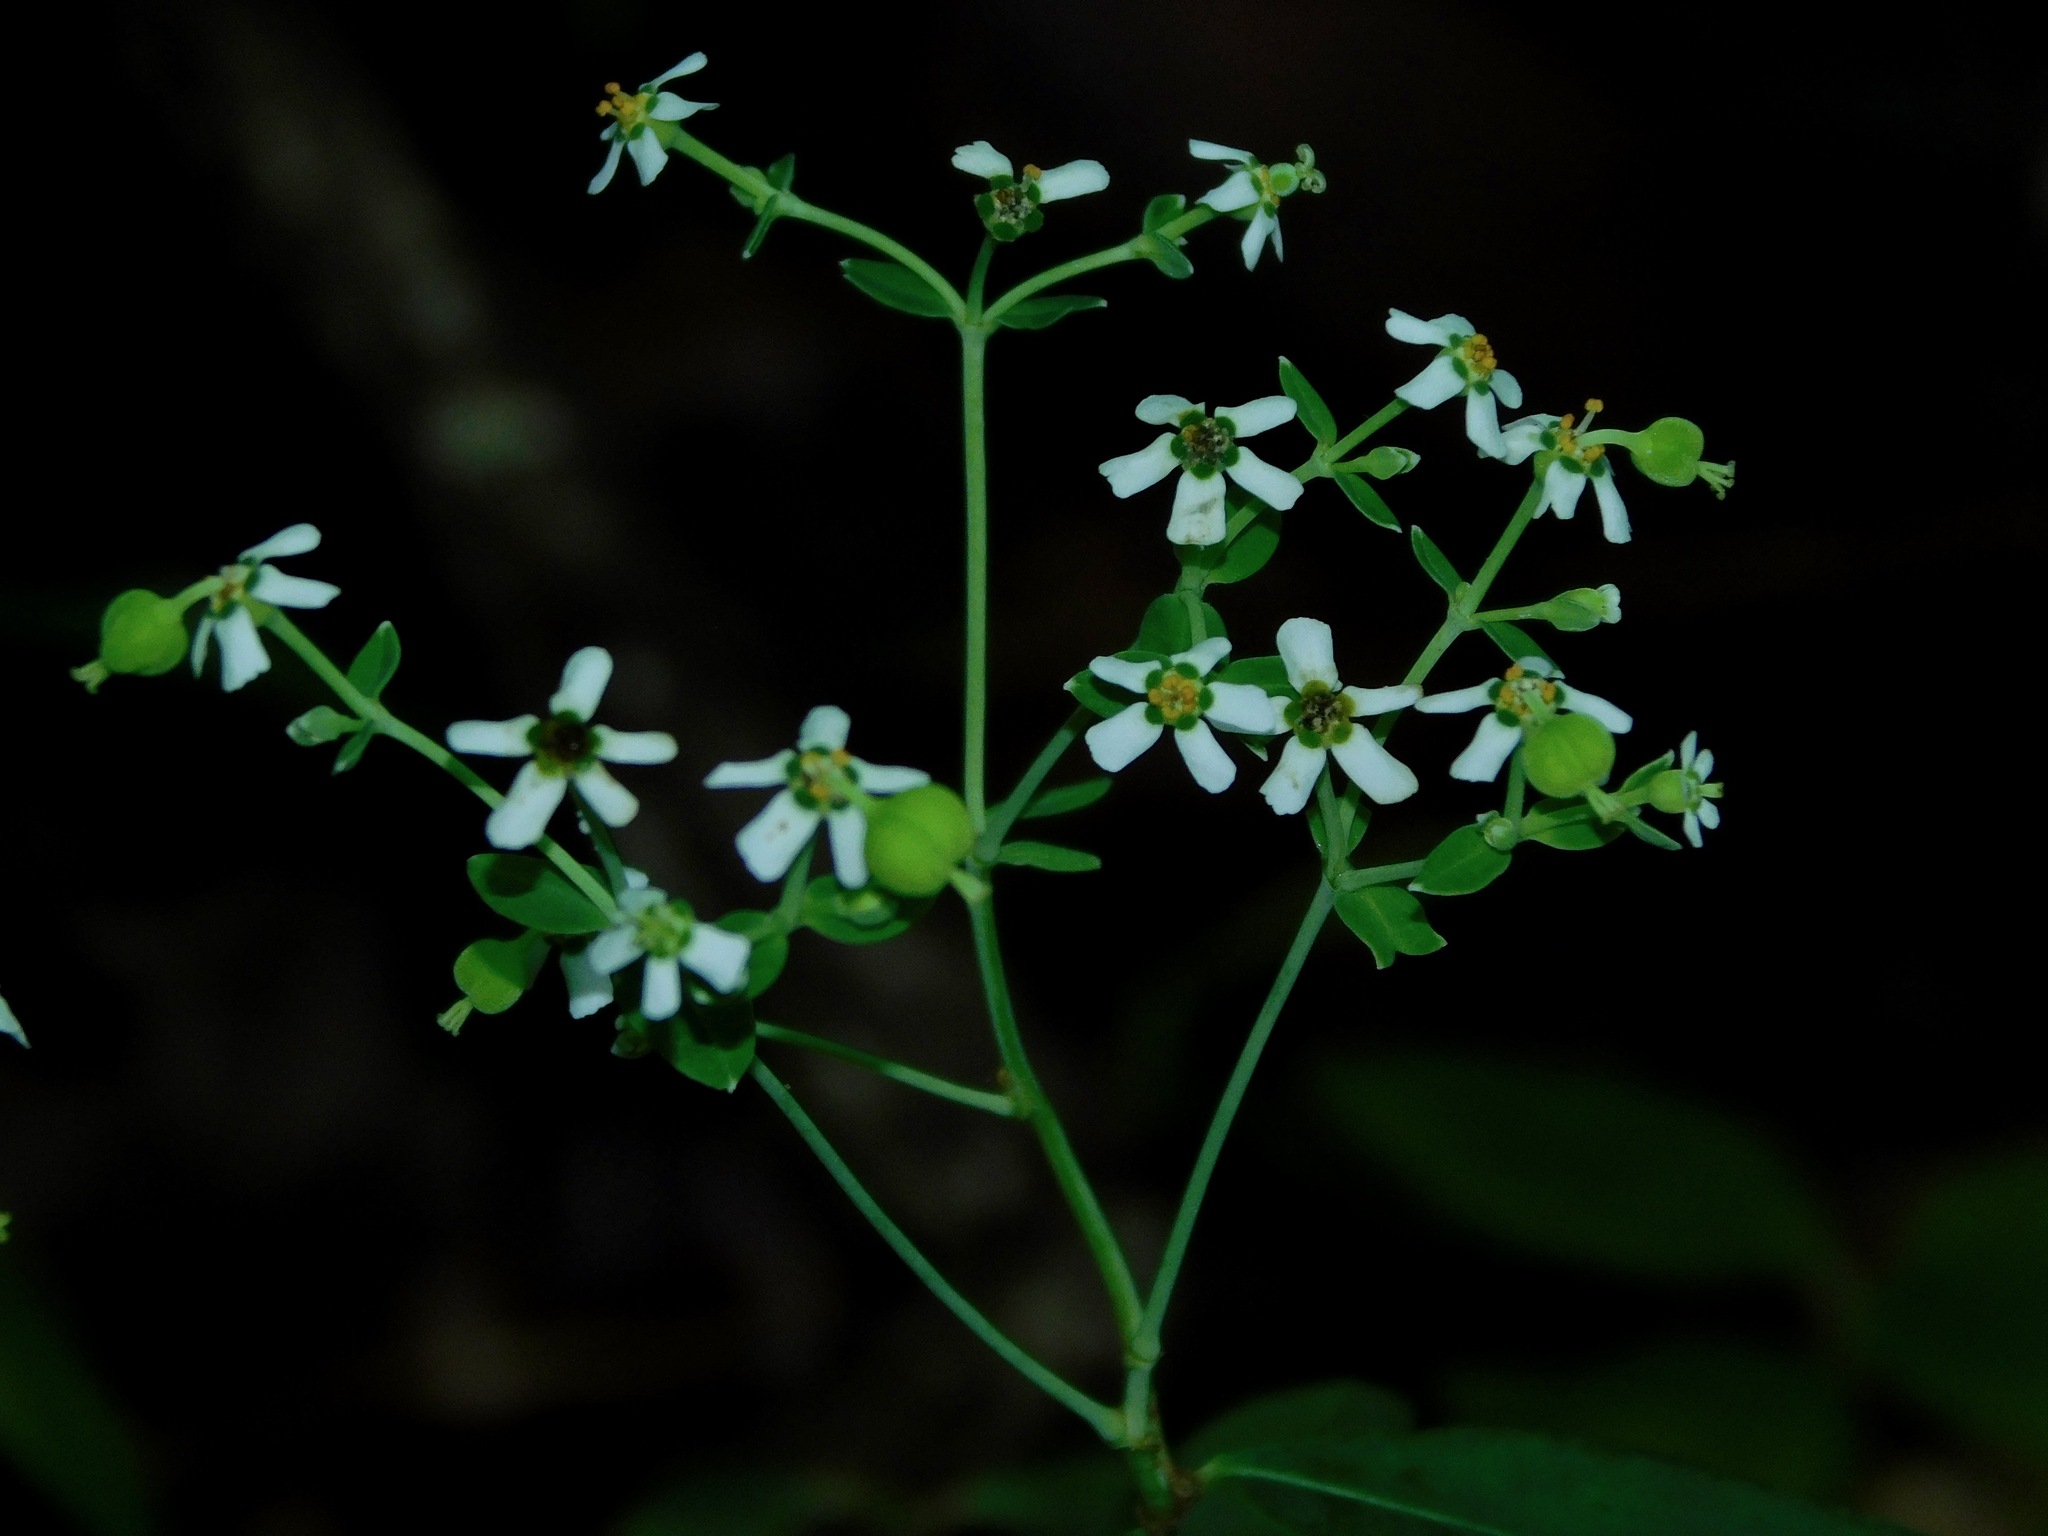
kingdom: Plantae
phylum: Tracheophyta
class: Magnoliopsida
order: Malpighiales
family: Euphorbiaceae
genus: Euphorbia
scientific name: Euphorbia corollata
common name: Flowering spurge
